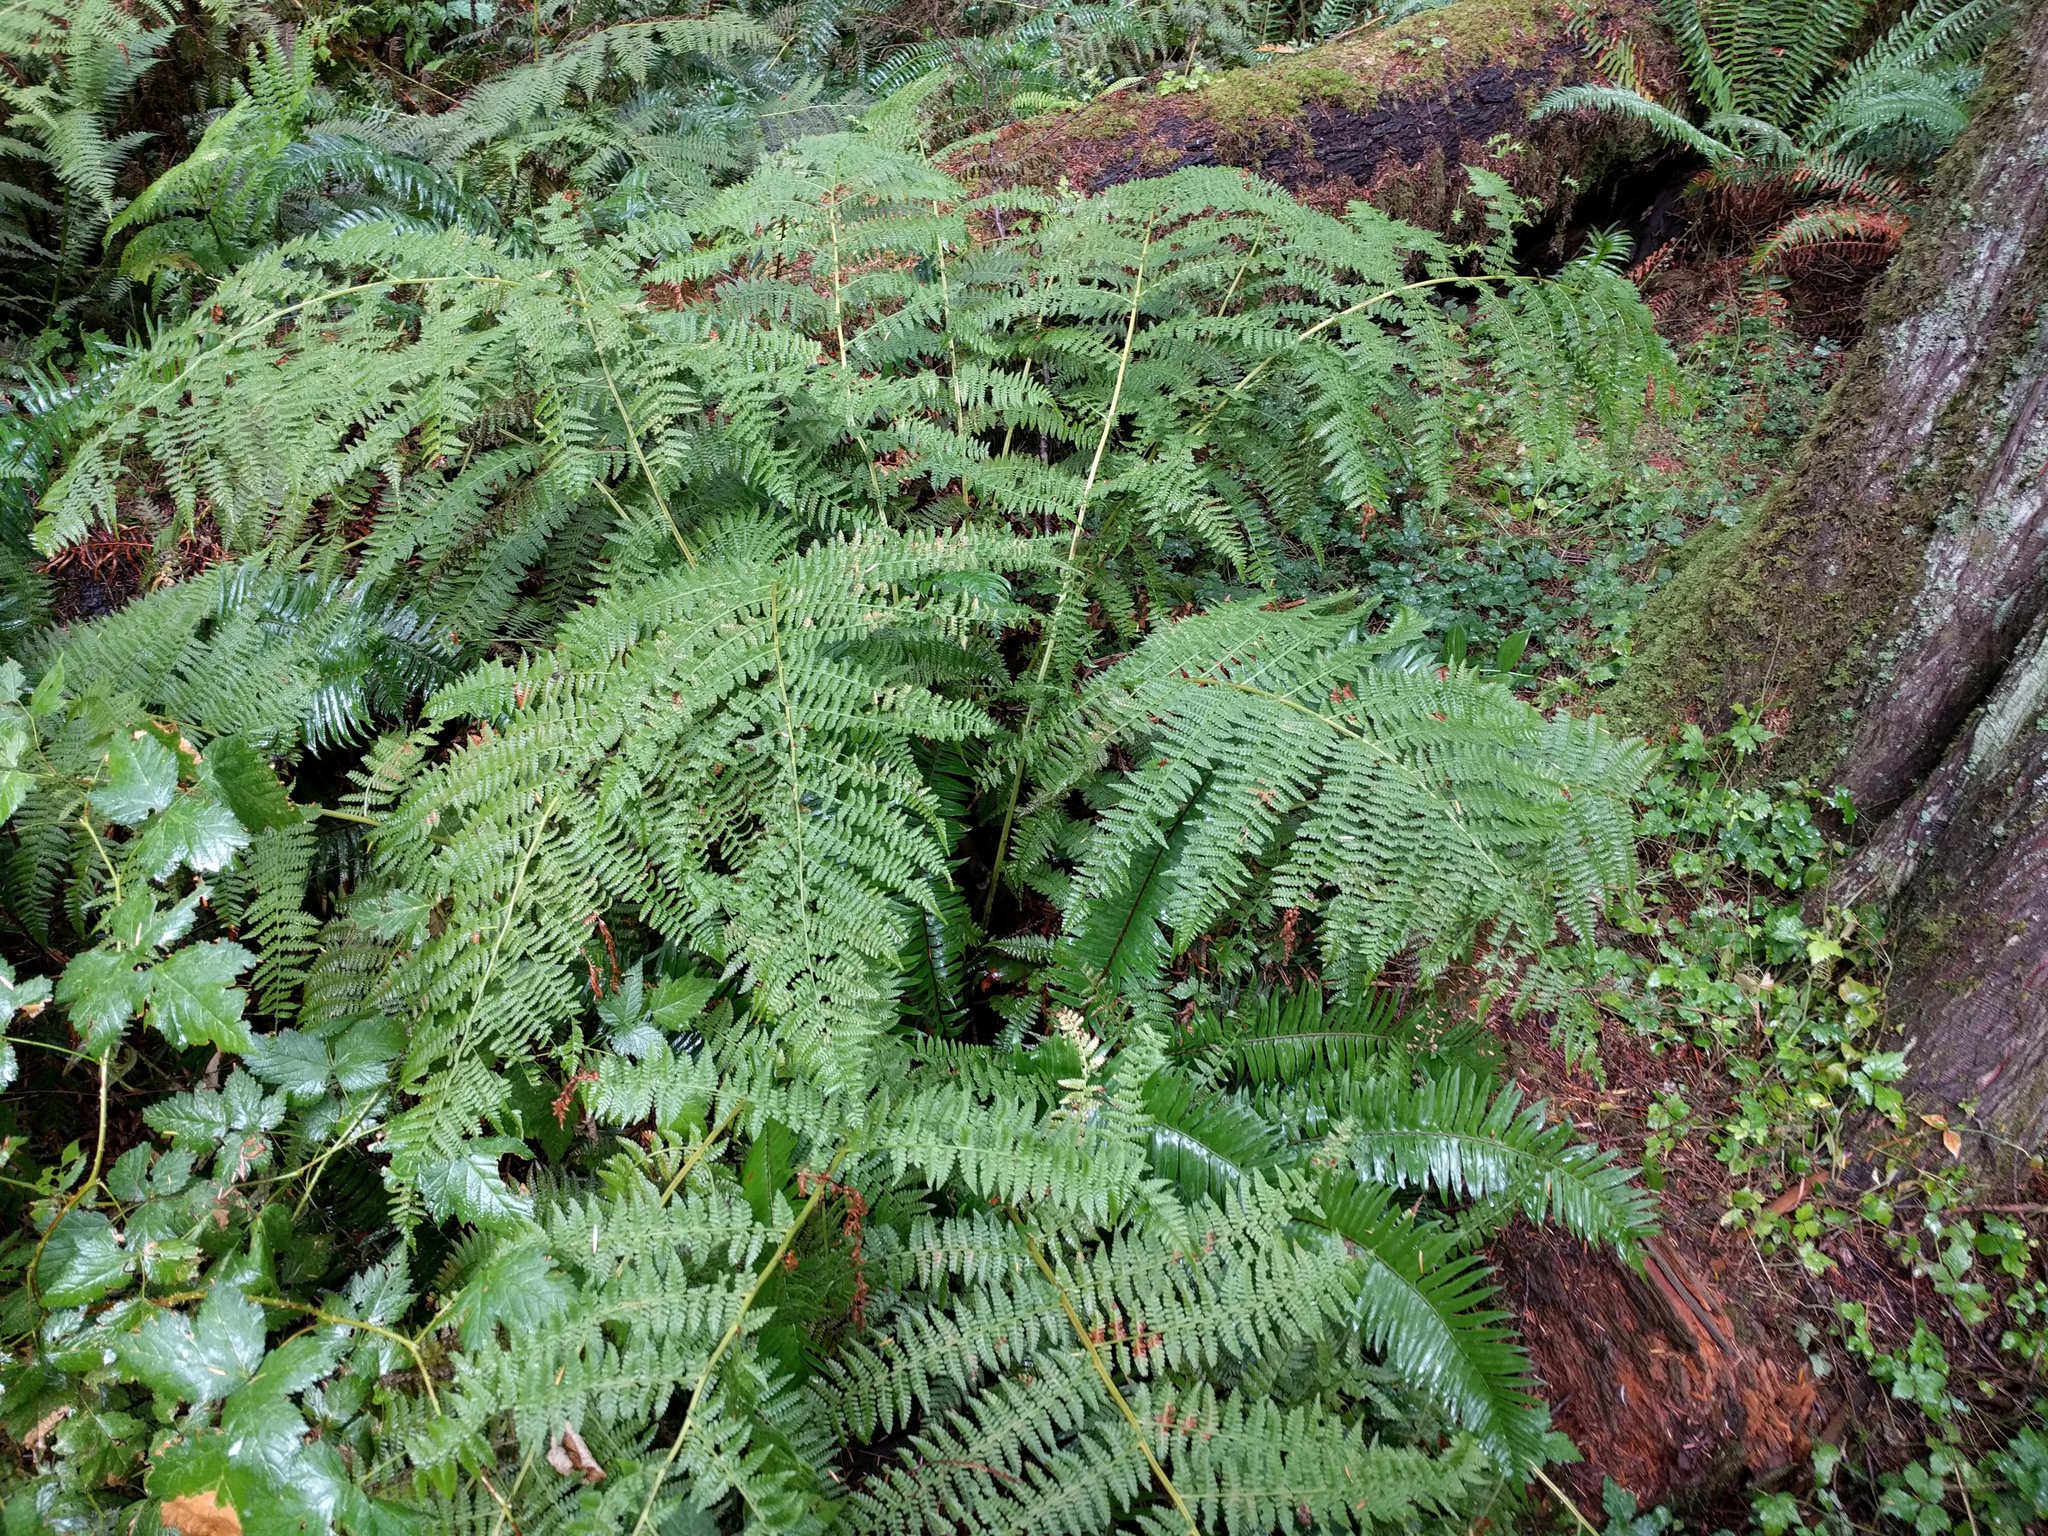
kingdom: Plantae
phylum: Tracheophyta
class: Polypodiopsida
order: Polypodiales
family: Athyriaceae
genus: Athyrium
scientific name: Athyrium filix-femina
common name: Lady fern
